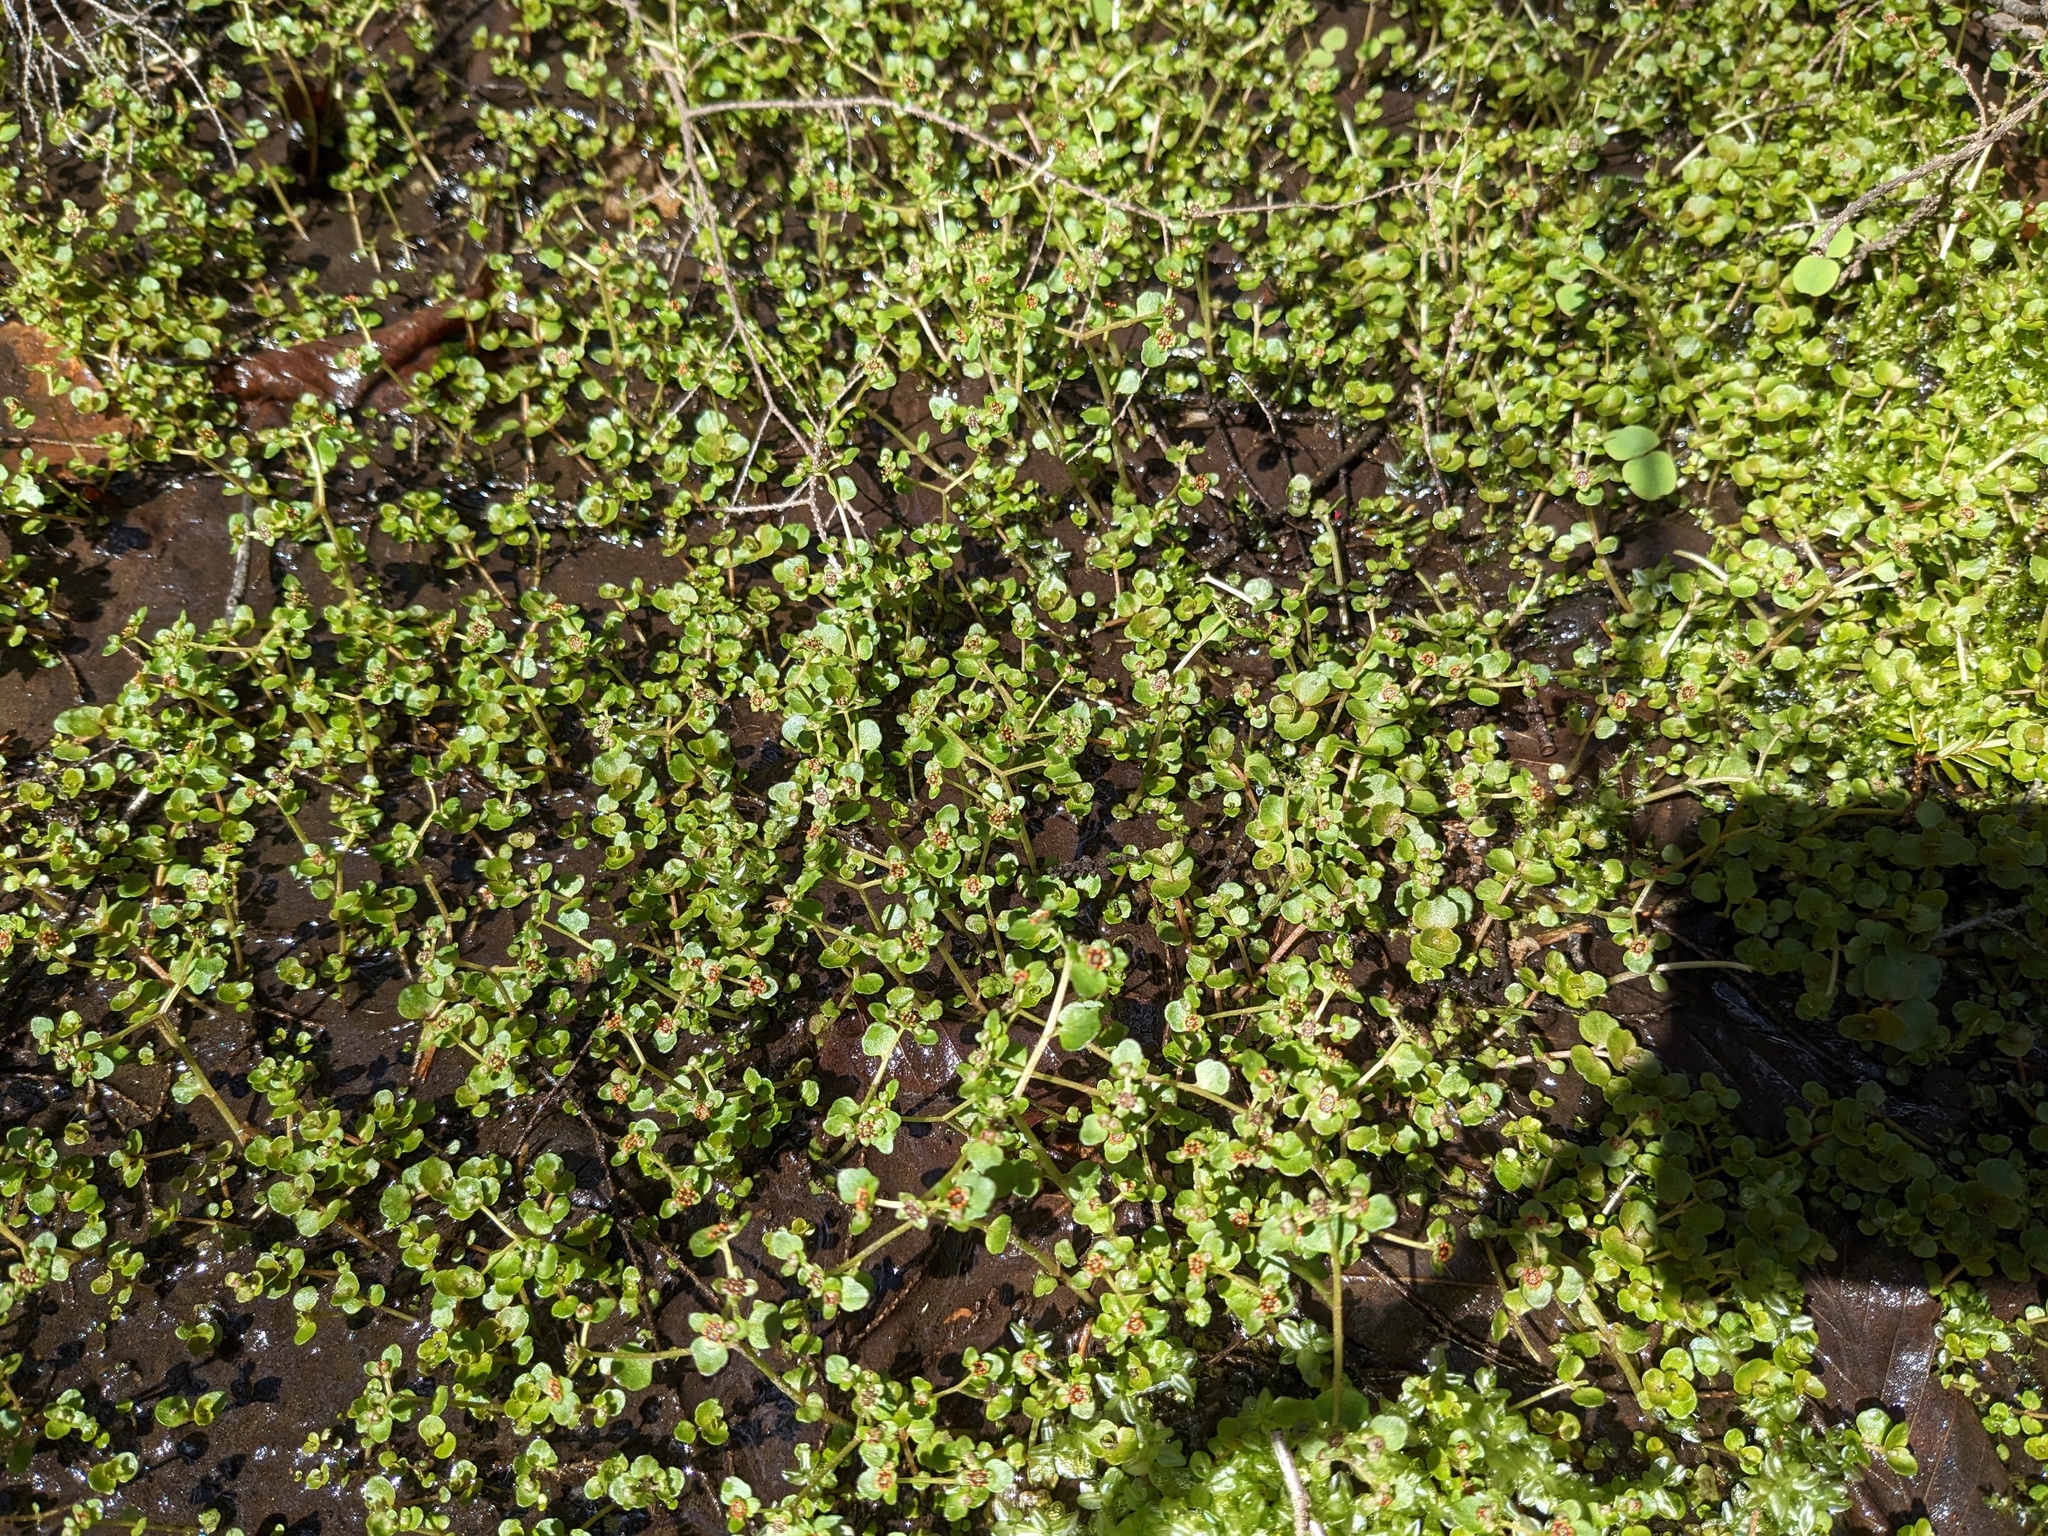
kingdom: Plantae
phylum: Tracheophyta
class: Magnoliopsida
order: Saxifragales
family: Saxifragaceae
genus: Chrysosplenium
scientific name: Chrysosplenium americanum
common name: American golden-saxifrage
